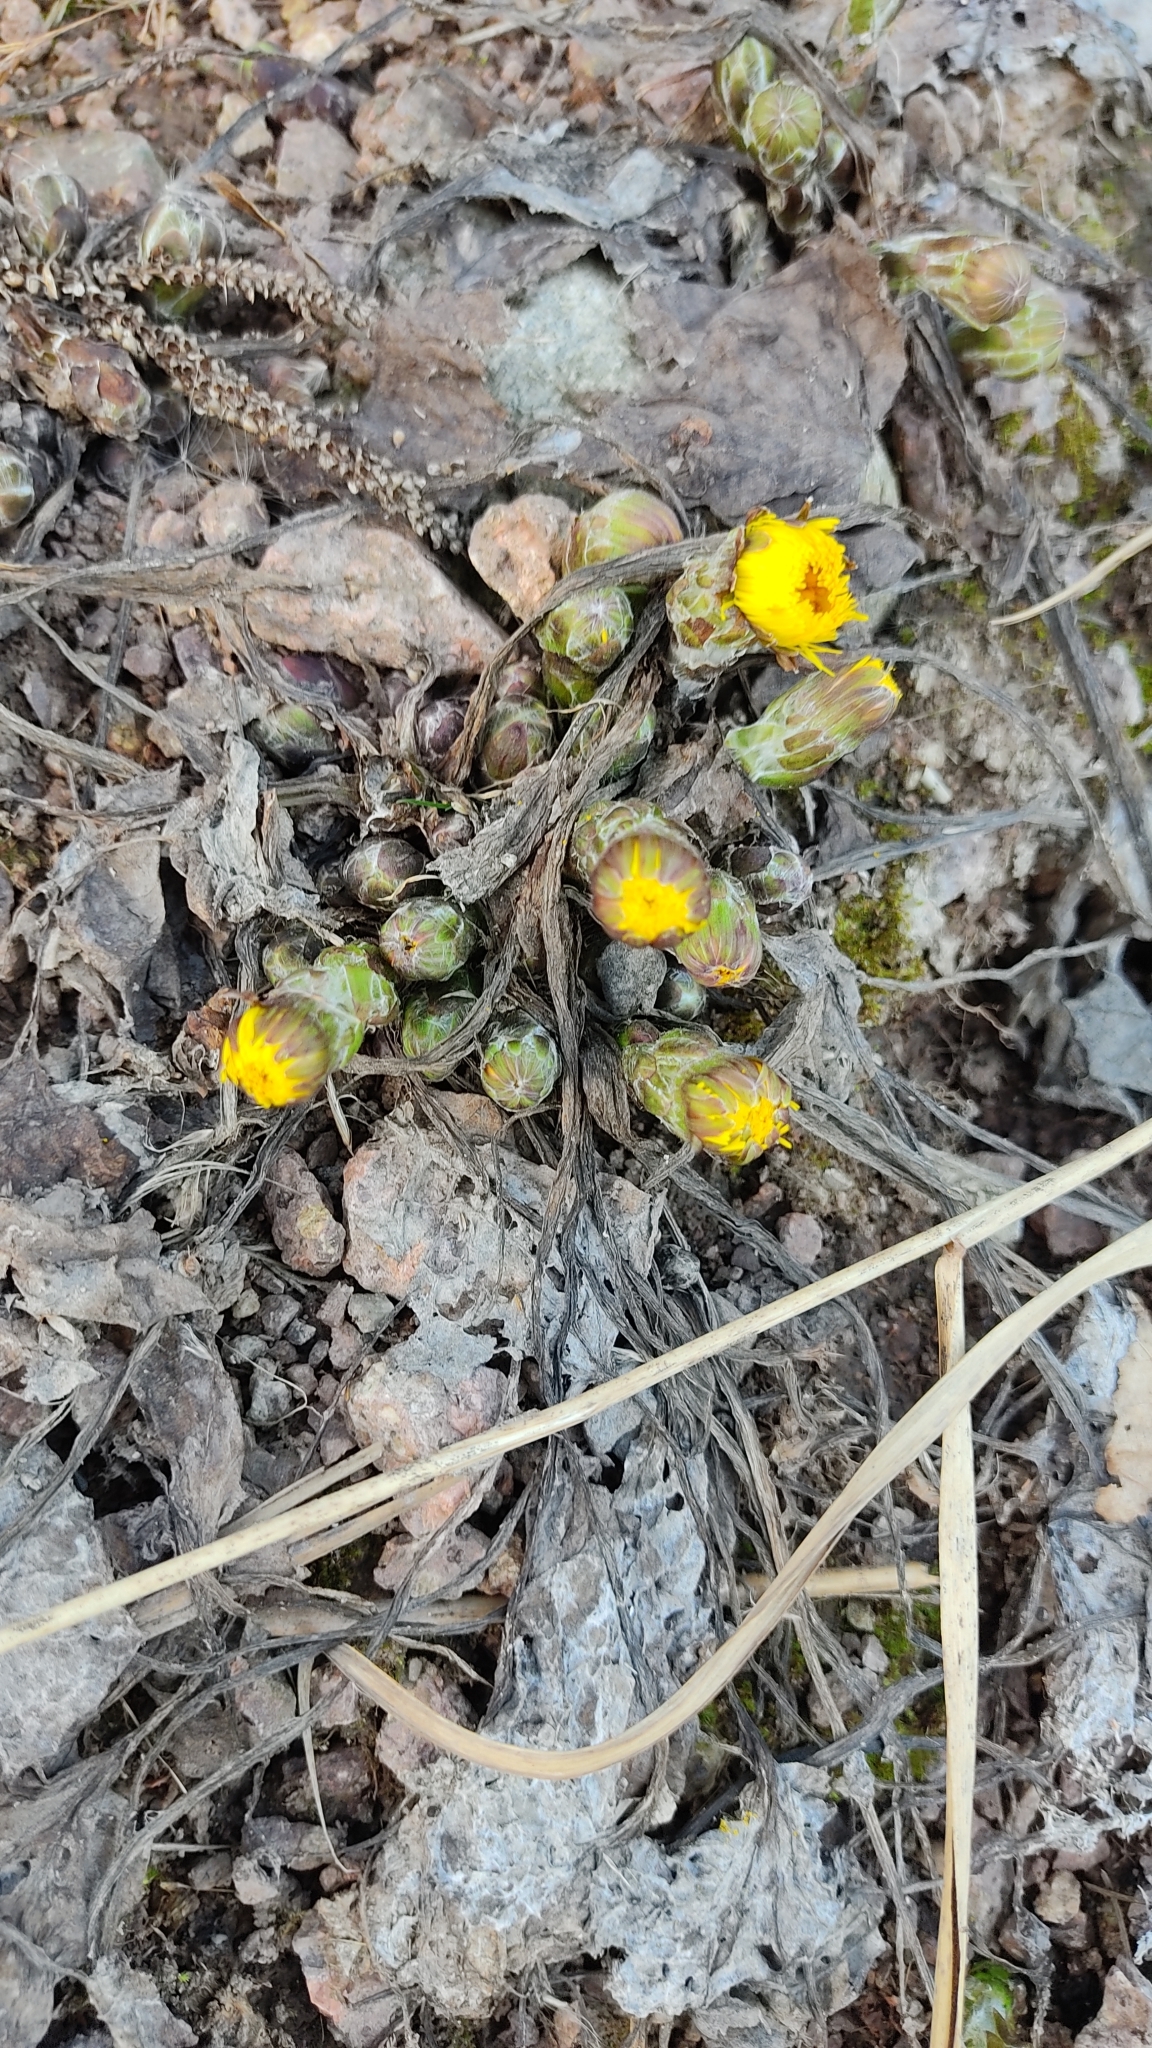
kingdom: Plantae
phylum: Tracheophyta
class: Magnoliopsida
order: Asterales
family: Asteraceae
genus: Tussilago
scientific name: Tussilago farfara
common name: Coltsfoot
